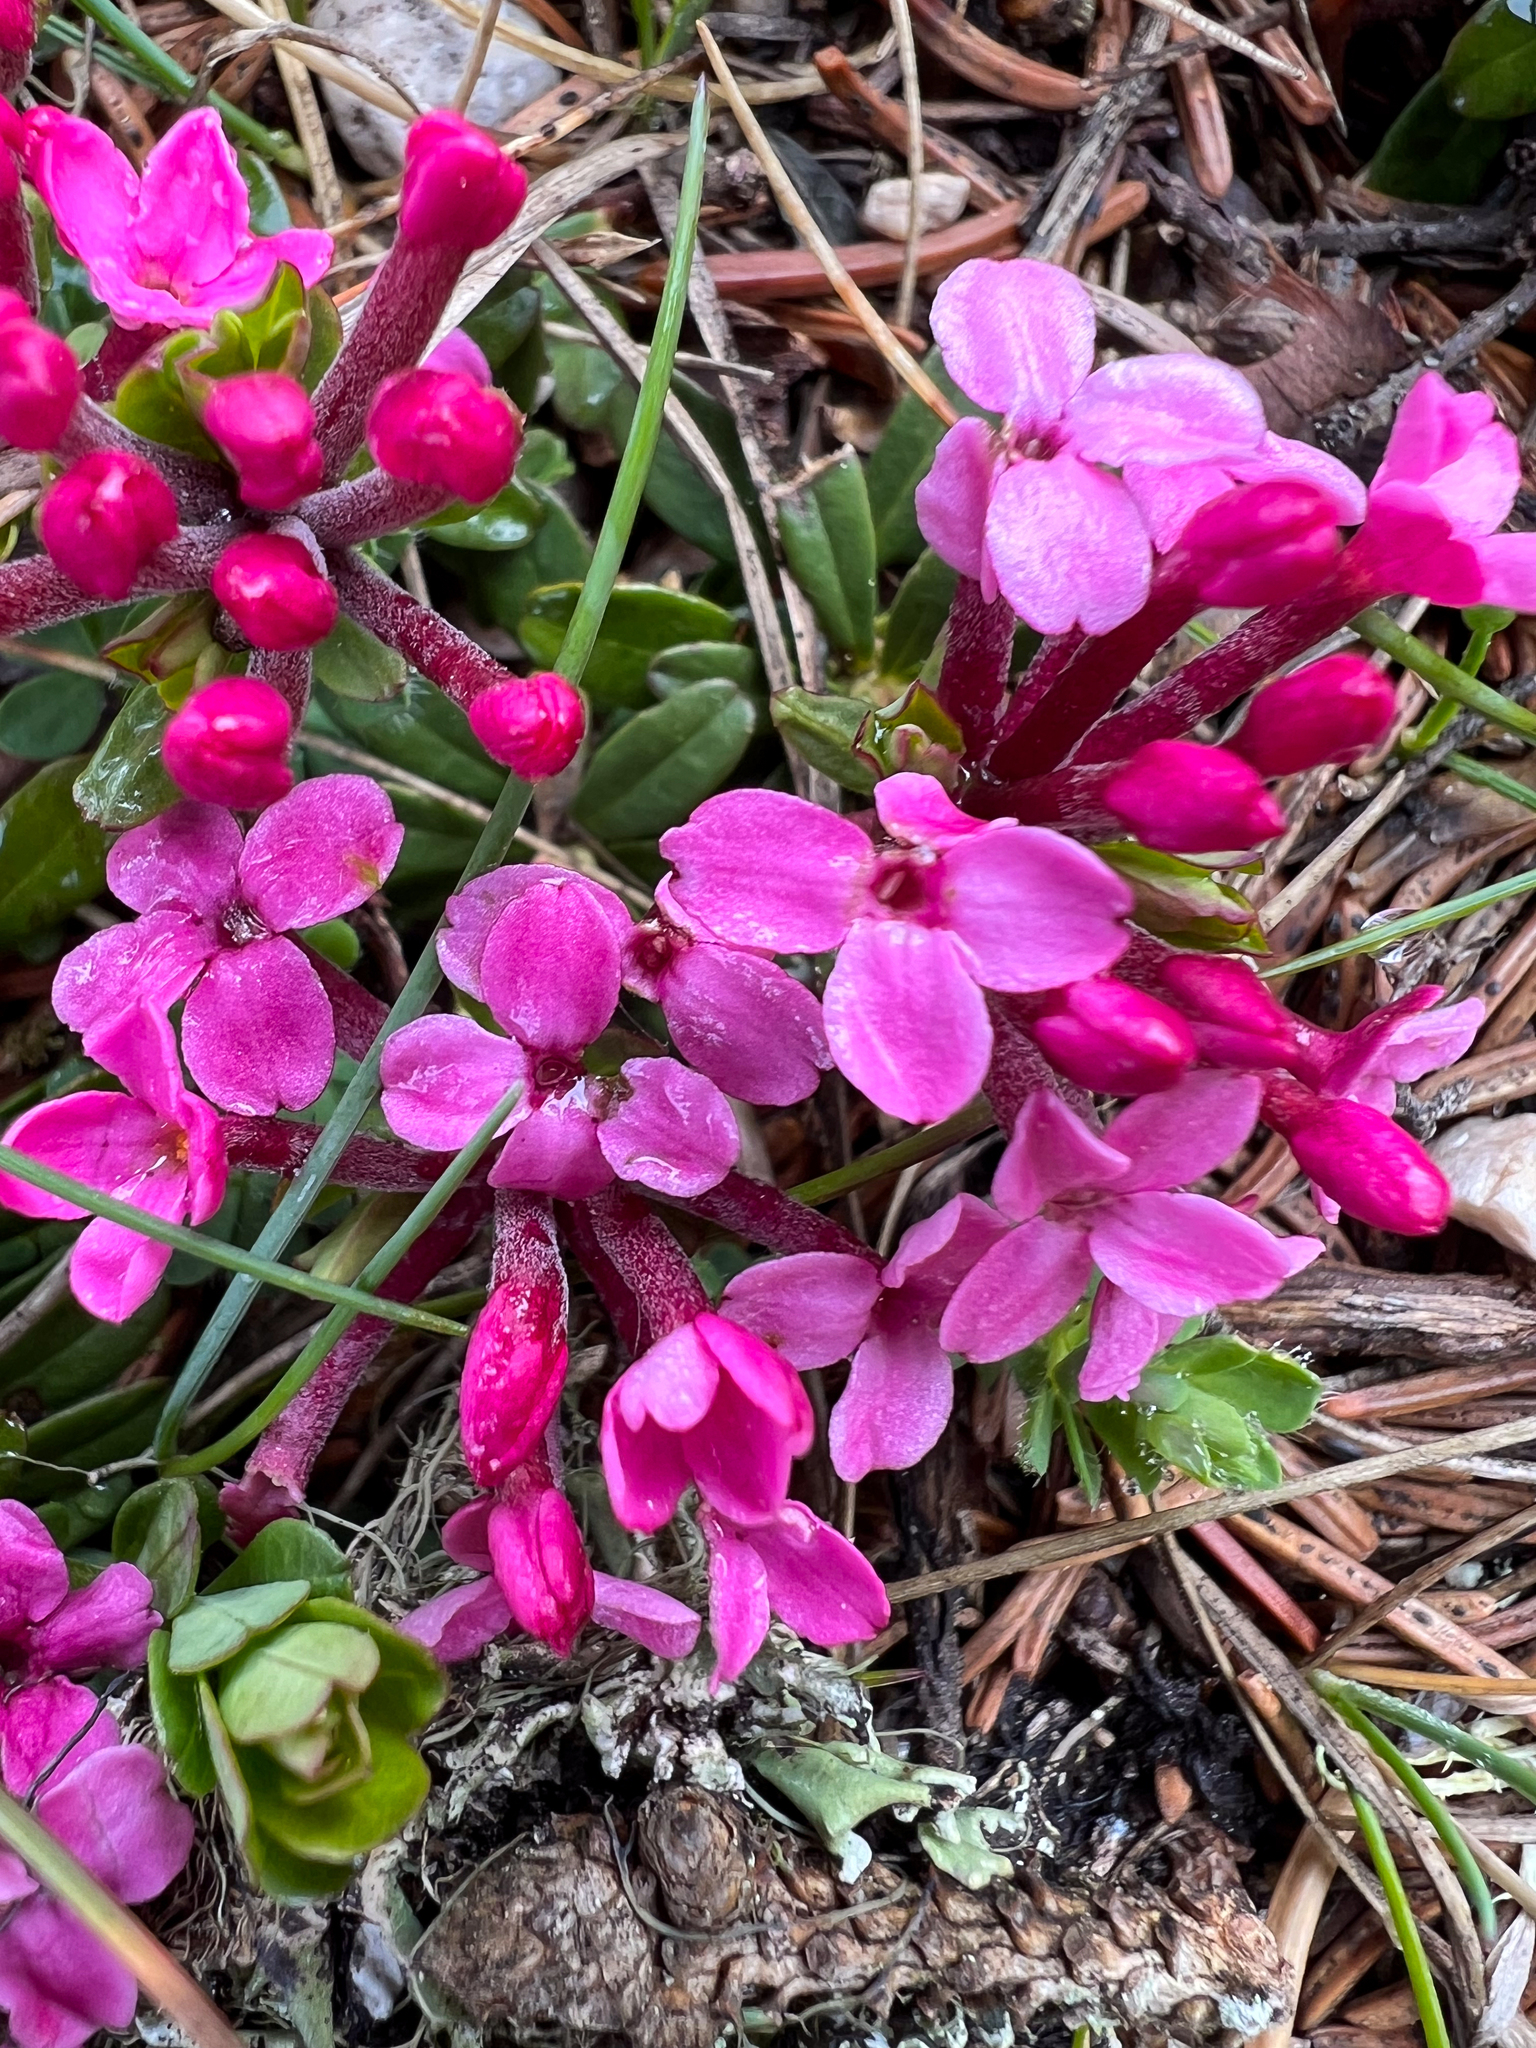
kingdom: Plantae
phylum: Tracheophyta
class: Magnoliopsida
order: Malvales
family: Thymelaeaceae
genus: Daphne
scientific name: Daphne cneorum
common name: Garland-flower
